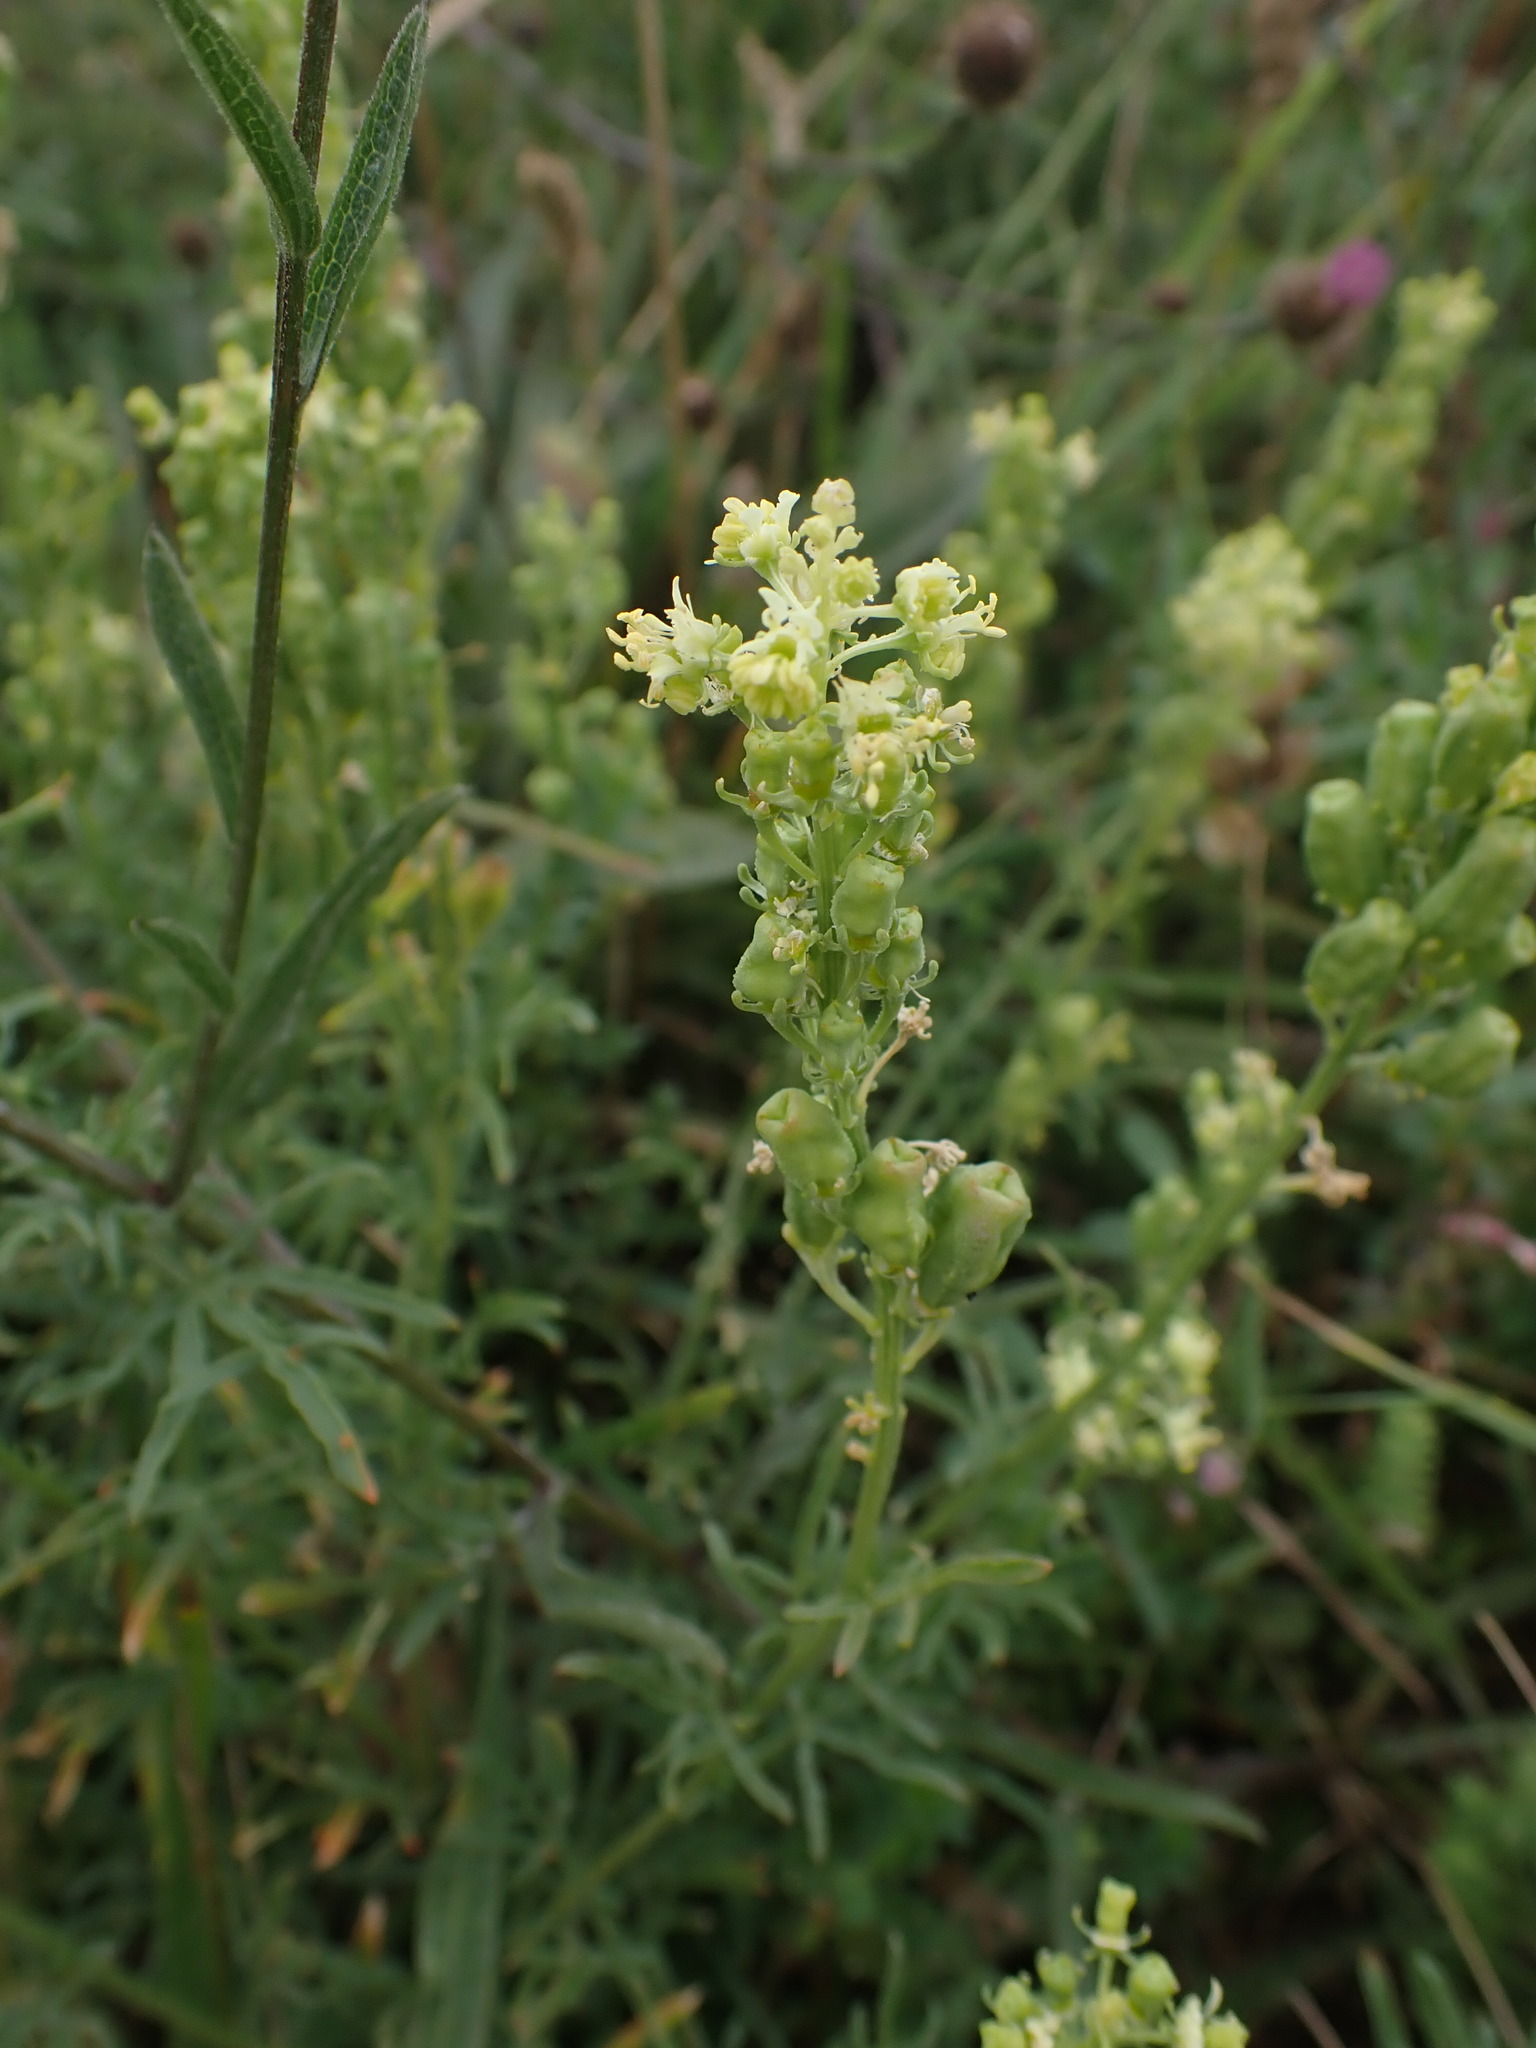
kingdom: Plantae
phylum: Tracheophyta
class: Magnoliopsida
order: Brassicales
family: Resedaceae
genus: Reseda
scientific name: Reseda lutea
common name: Wild mignonette
